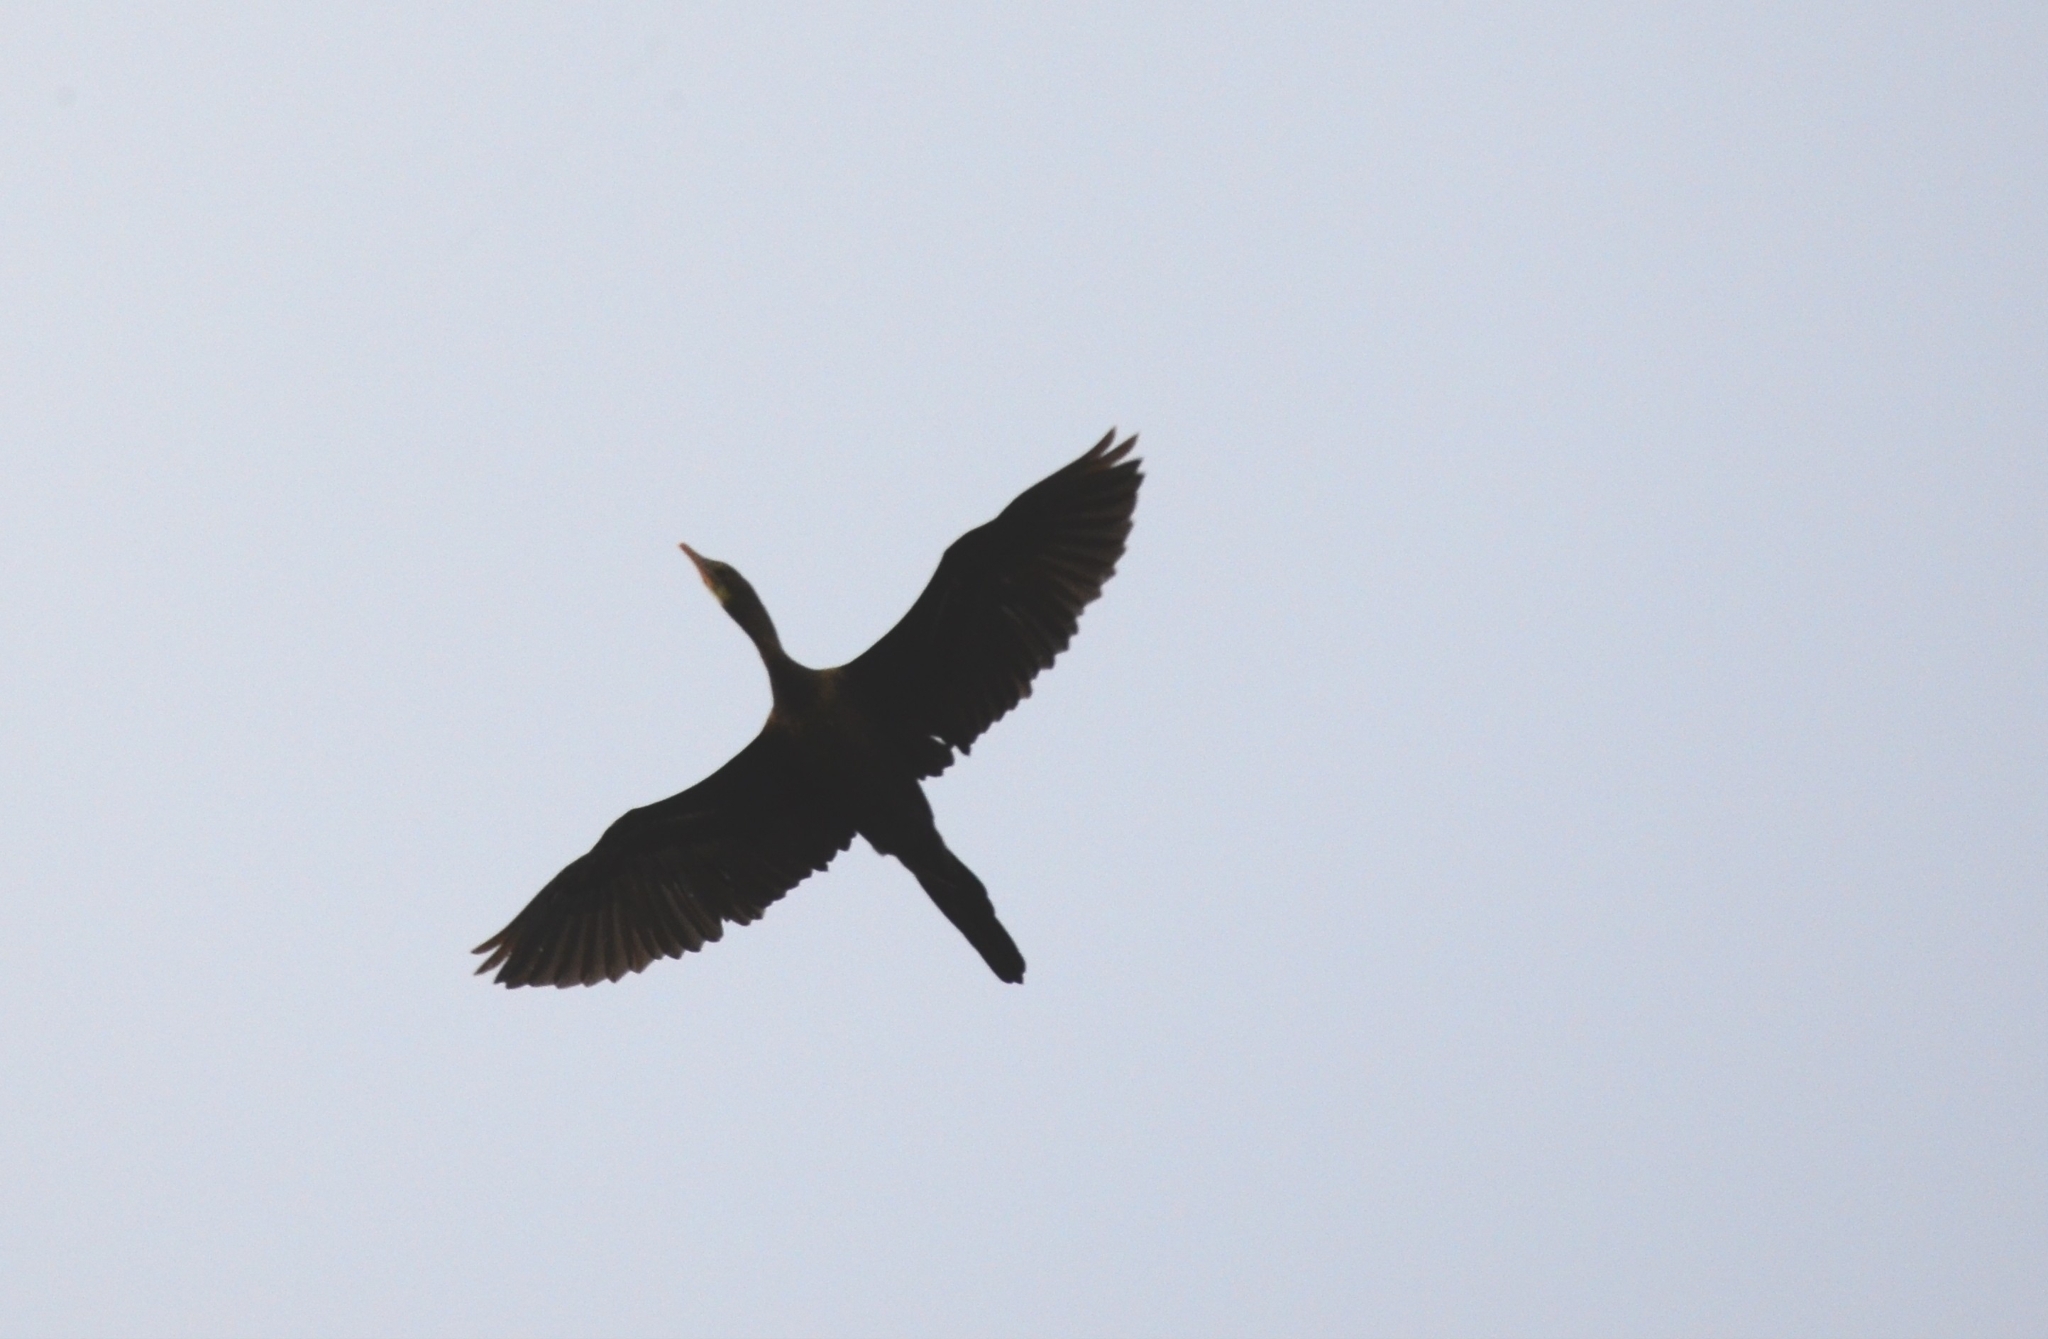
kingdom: Animalia
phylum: Chordata
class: Aves
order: Suliformes
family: Phalacrocoracidae
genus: Microcarbo
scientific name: Microcarbo niger
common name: Little cormorant
